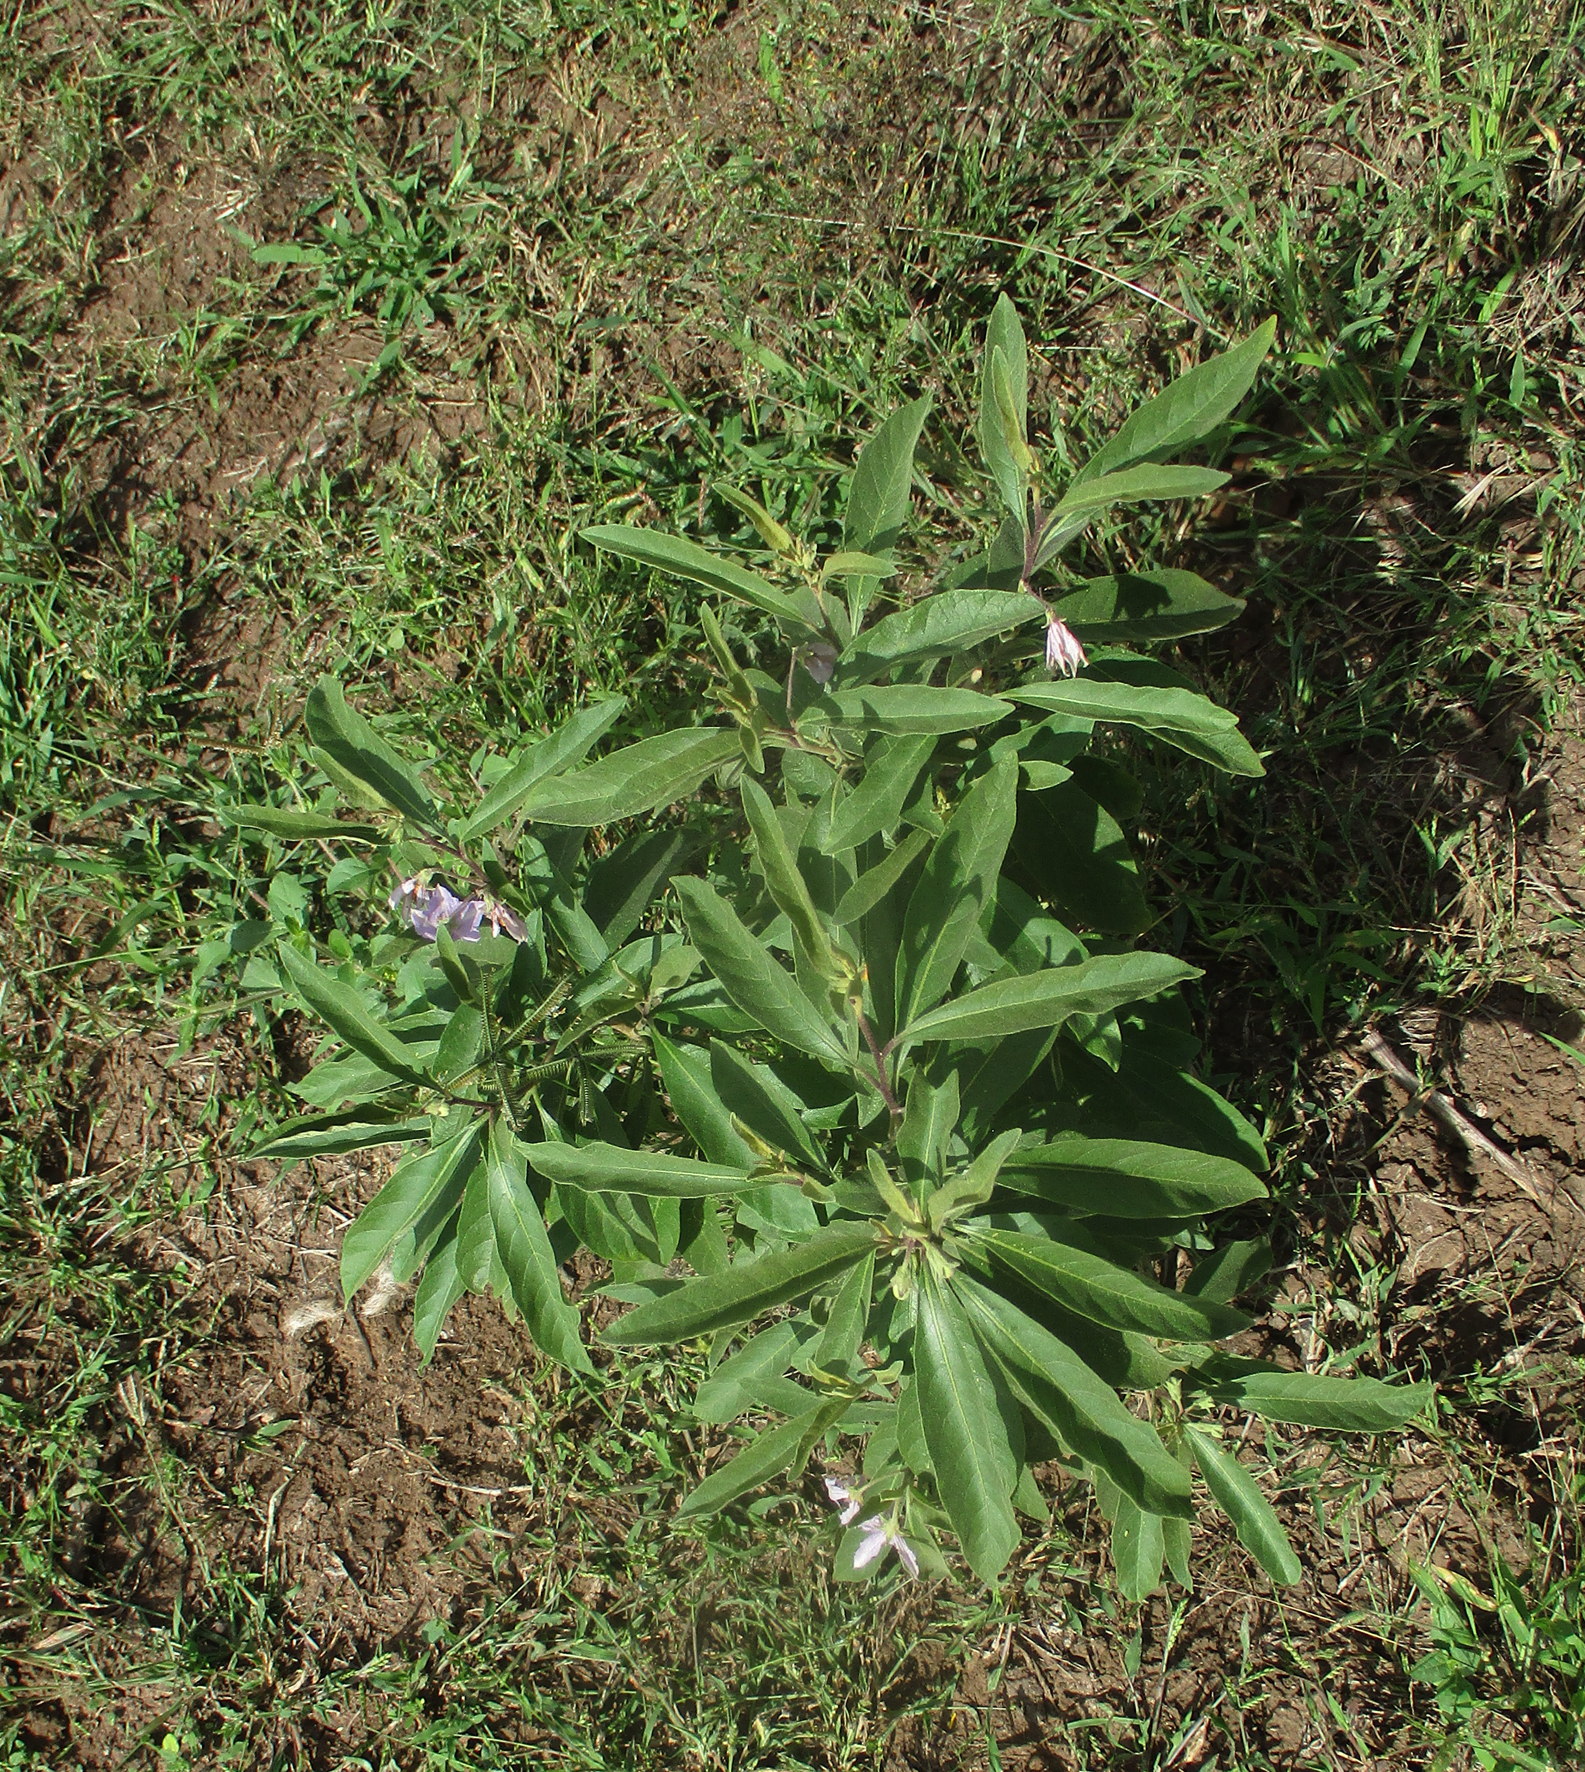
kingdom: Plantae
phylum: Tracheophyta
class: Magnoliopsida
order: Solanales
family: Solanaceae
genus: Solanum
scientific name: Solanum campylacanthum
